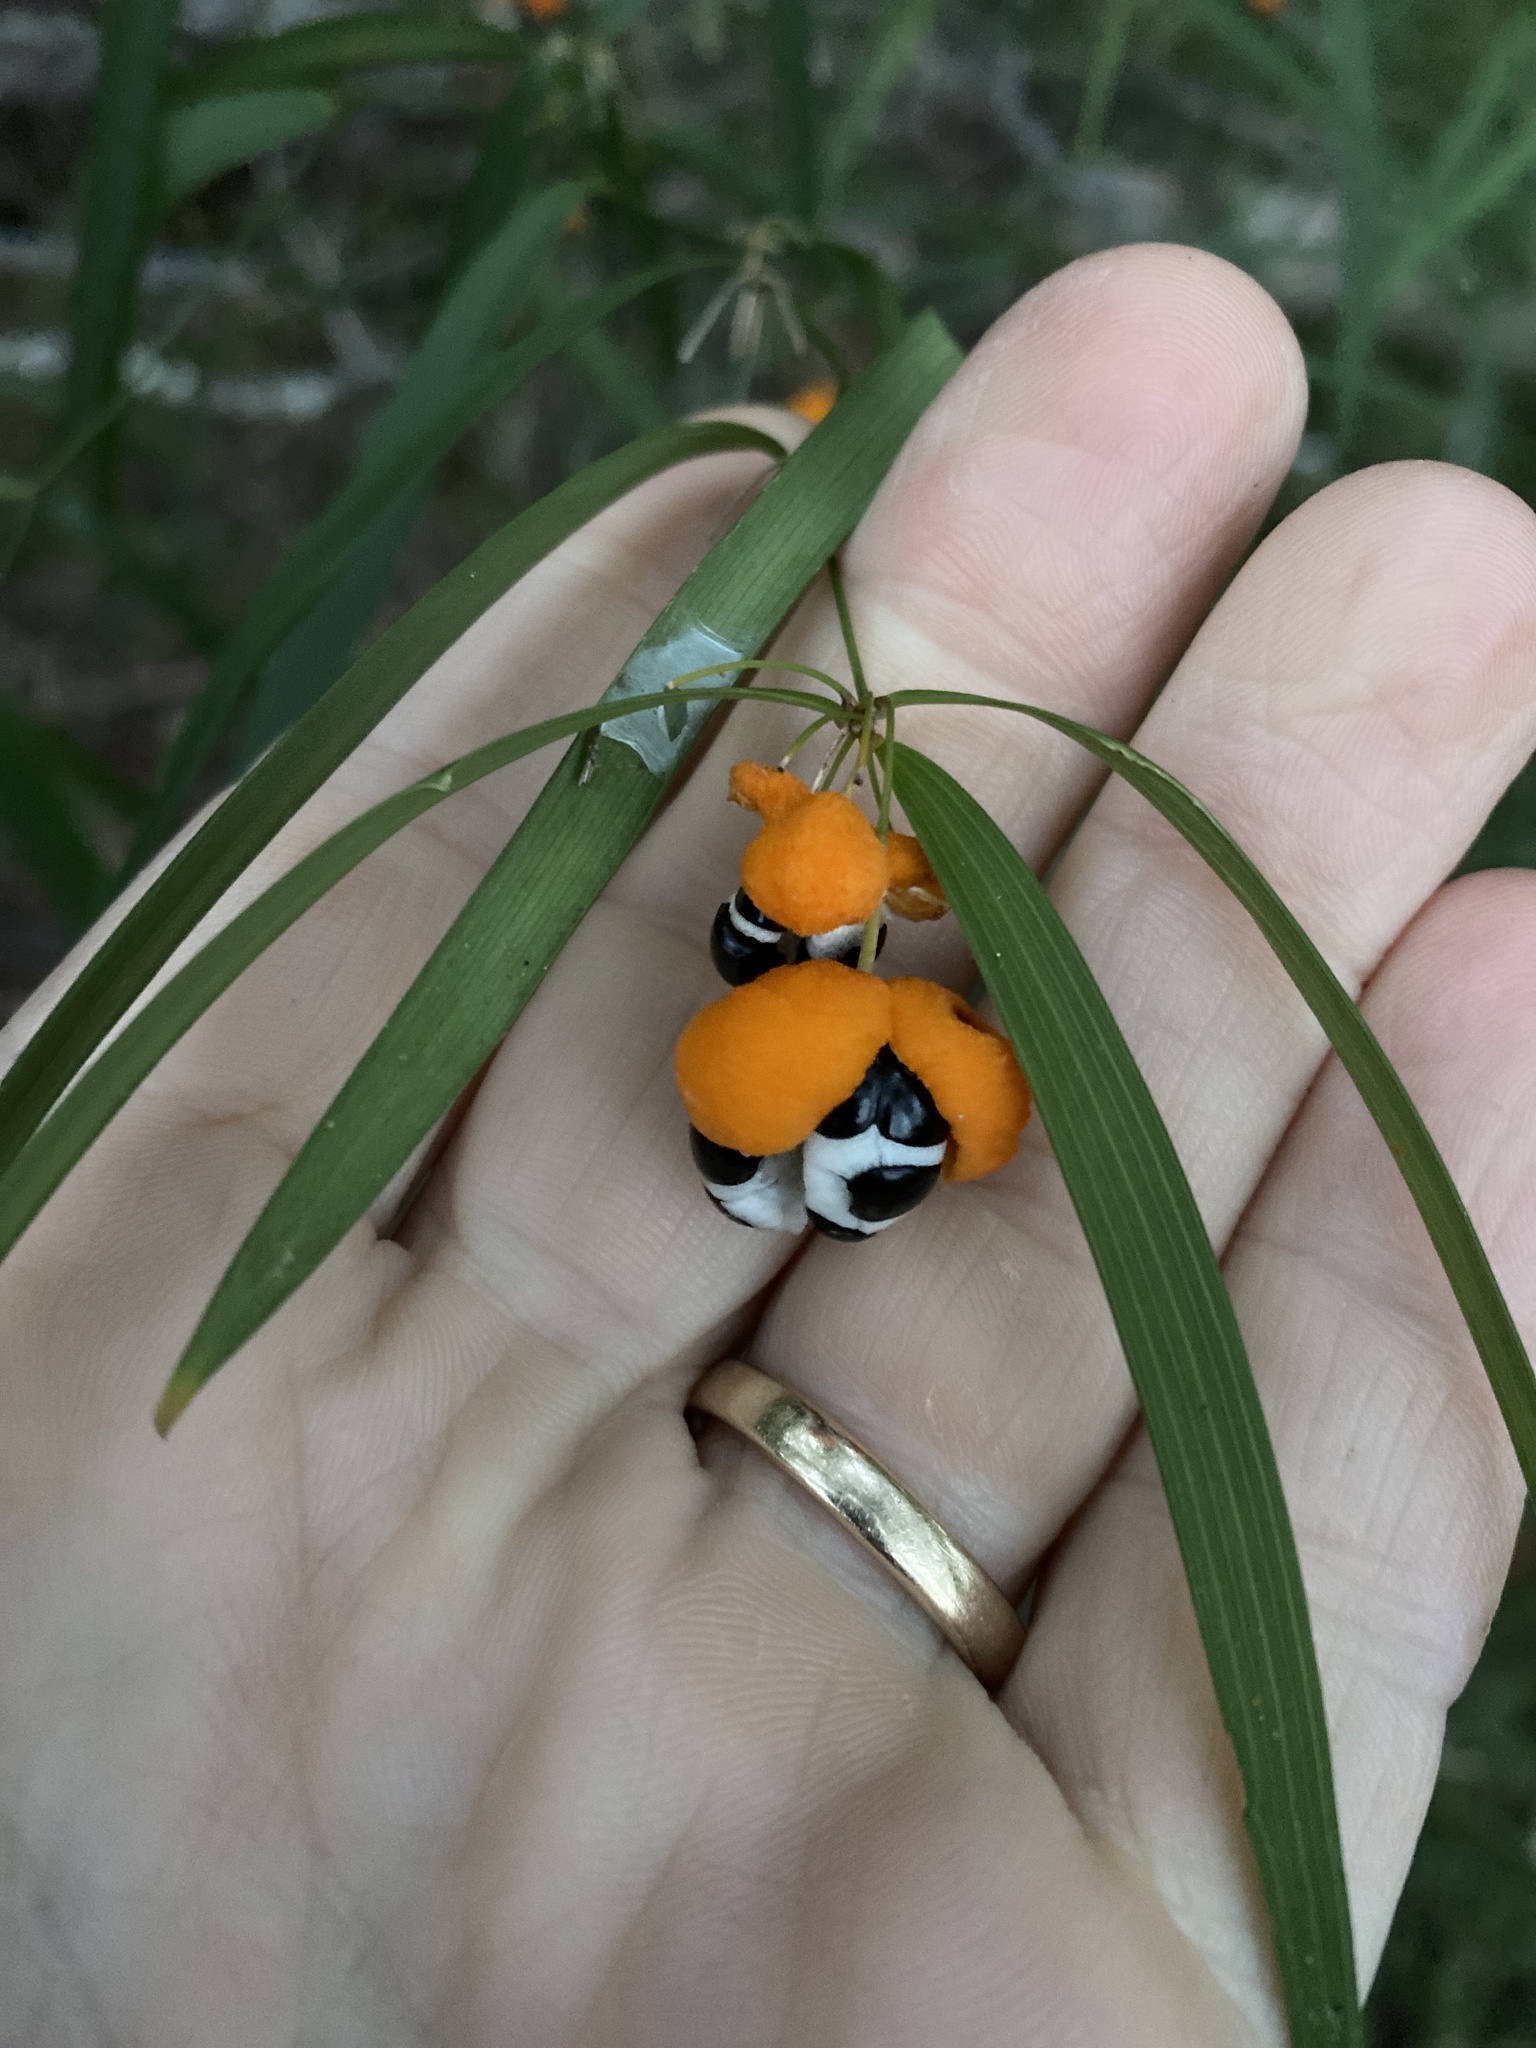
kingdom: Plantae
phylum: Tracheophyta
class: Liliopsida
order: Asparagales
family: Asparagaceae
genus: Eustrephus
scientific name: Eustrephus latifolius
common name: Orangevine
